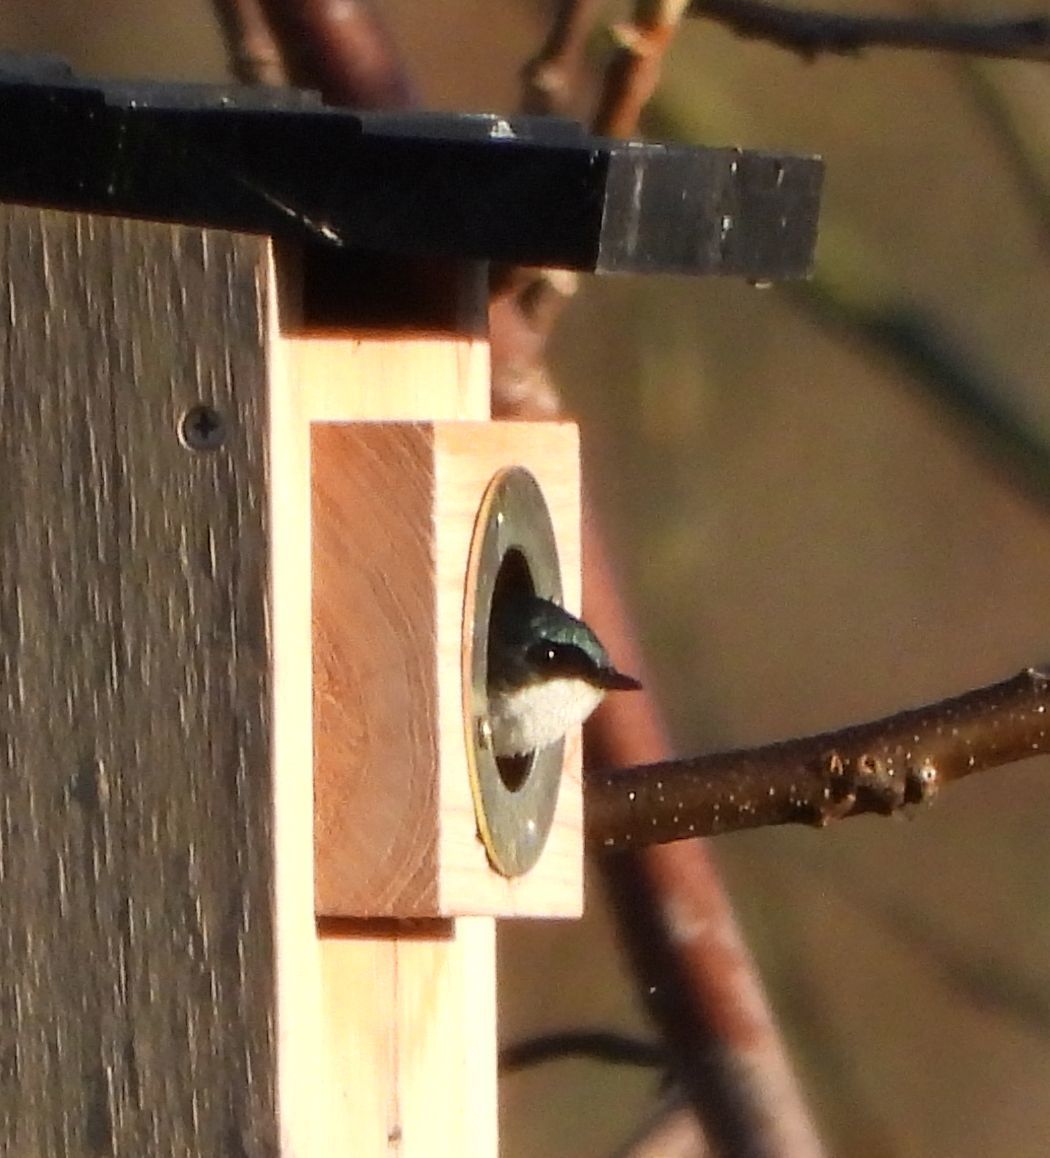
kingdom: Animalia
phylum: Chordata
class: Aves
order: Passeriformes
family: Hirundinidae
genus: Tachycineta
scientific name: Tachycineta bicolor
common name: Tree swallow
